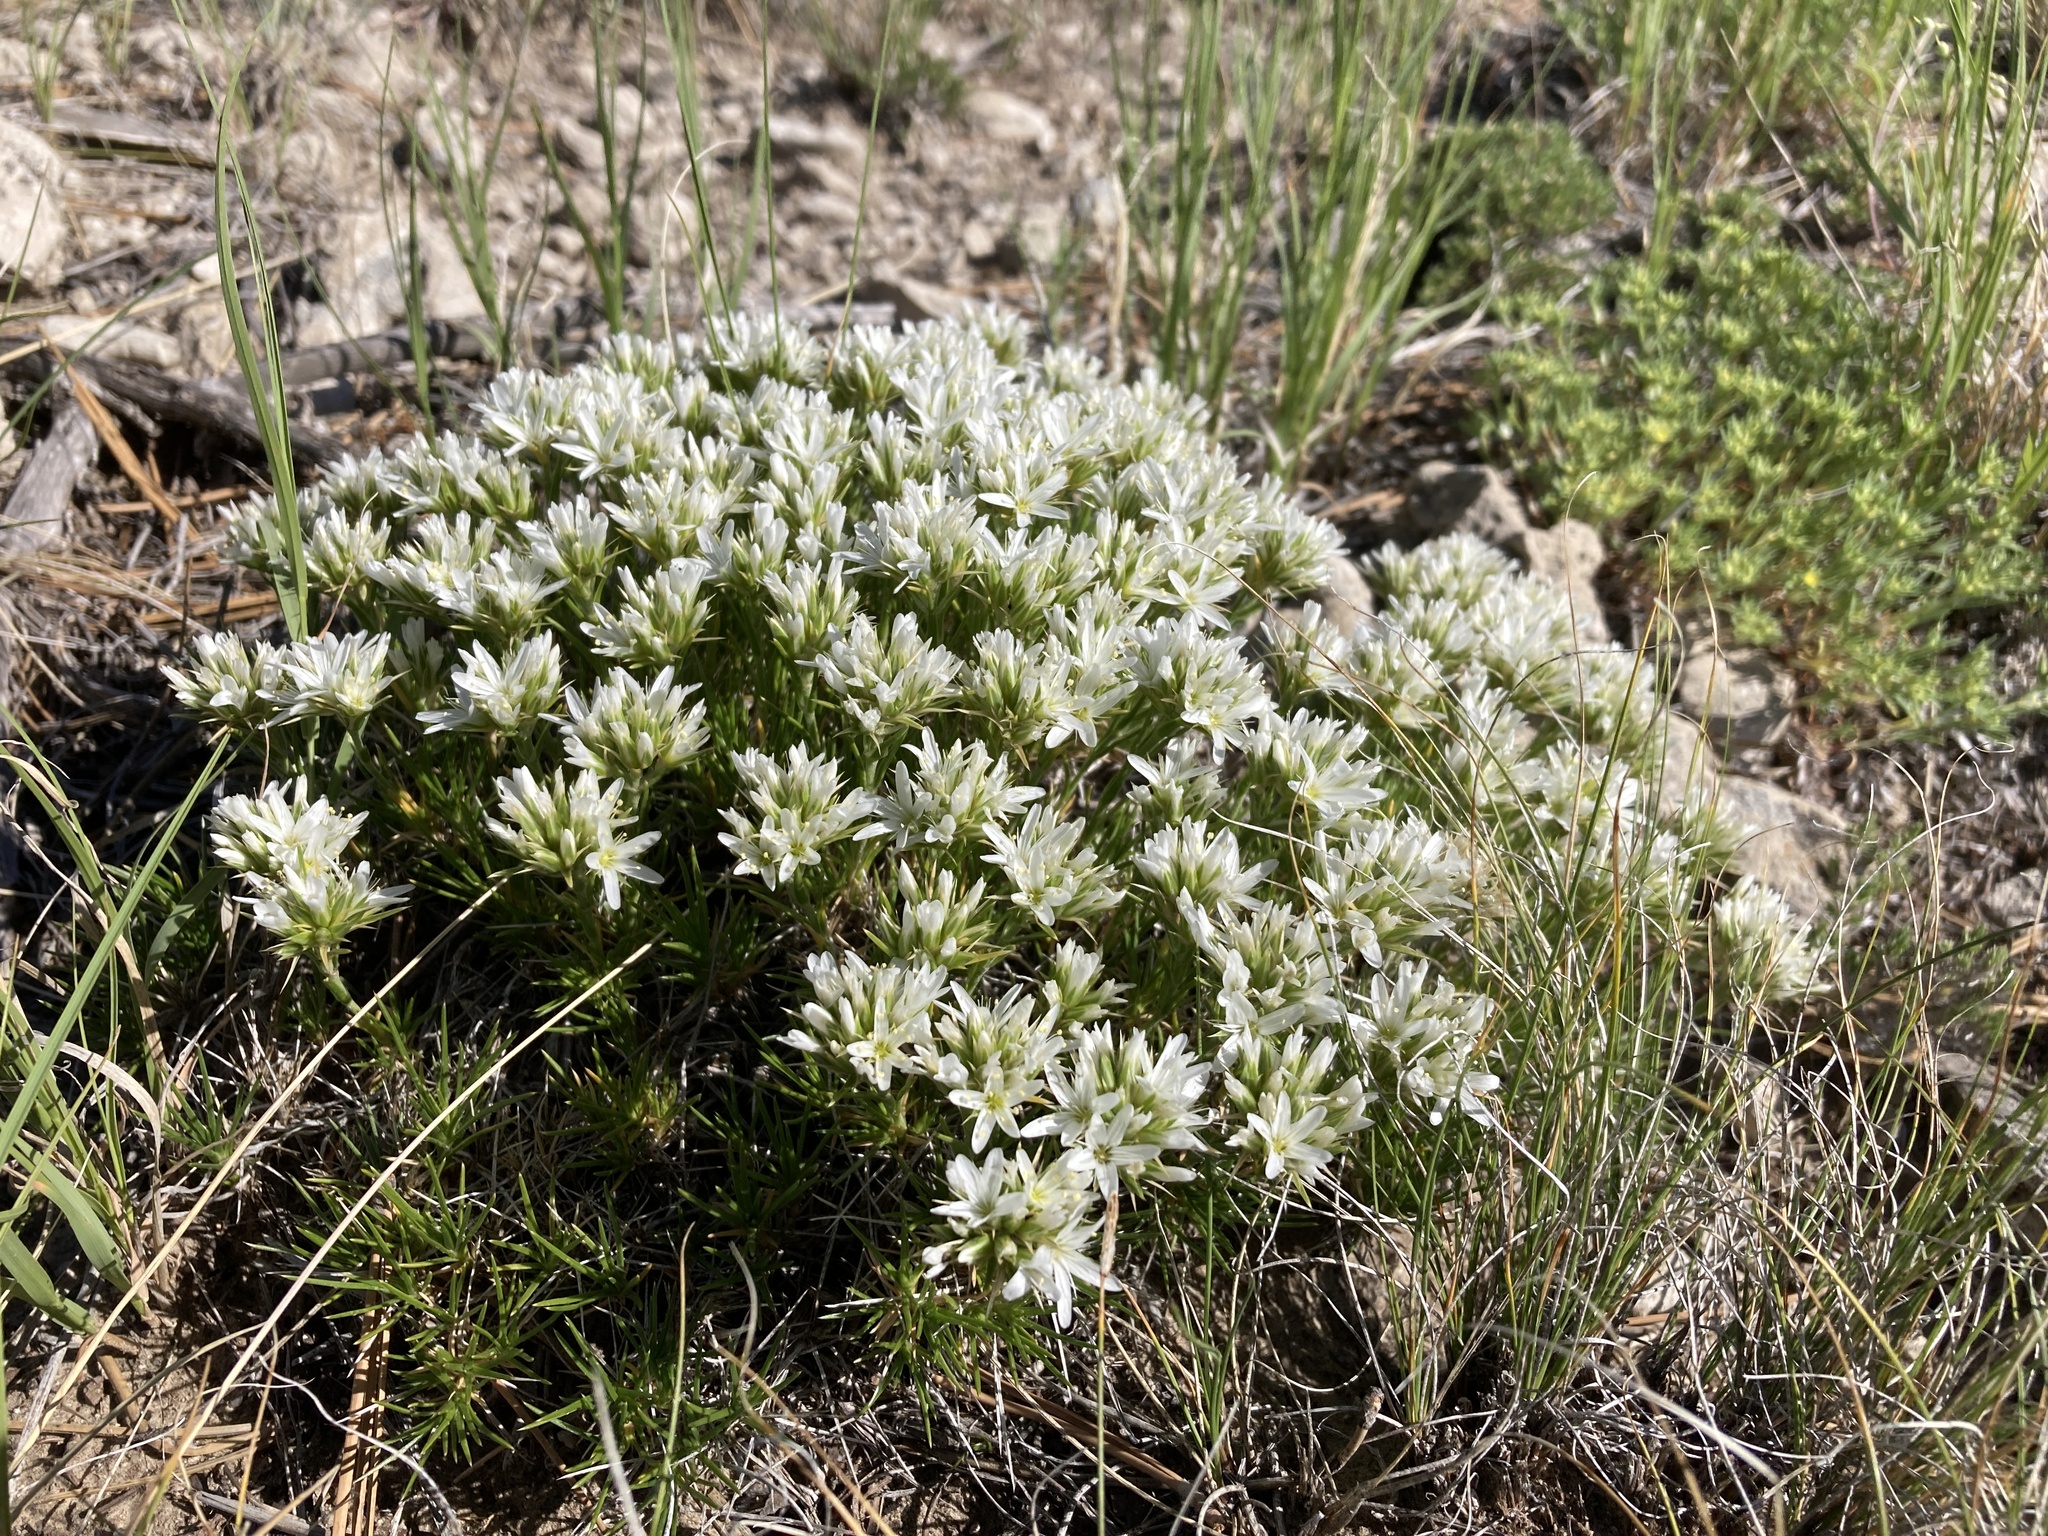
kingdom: Plantae
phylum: Tracheophyta
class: Magnoliopsida
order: Caryophyllales
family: Caryophyllaceae
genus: Eremogone
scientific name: Eremogone hookeri
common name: Hooker's sandwort
